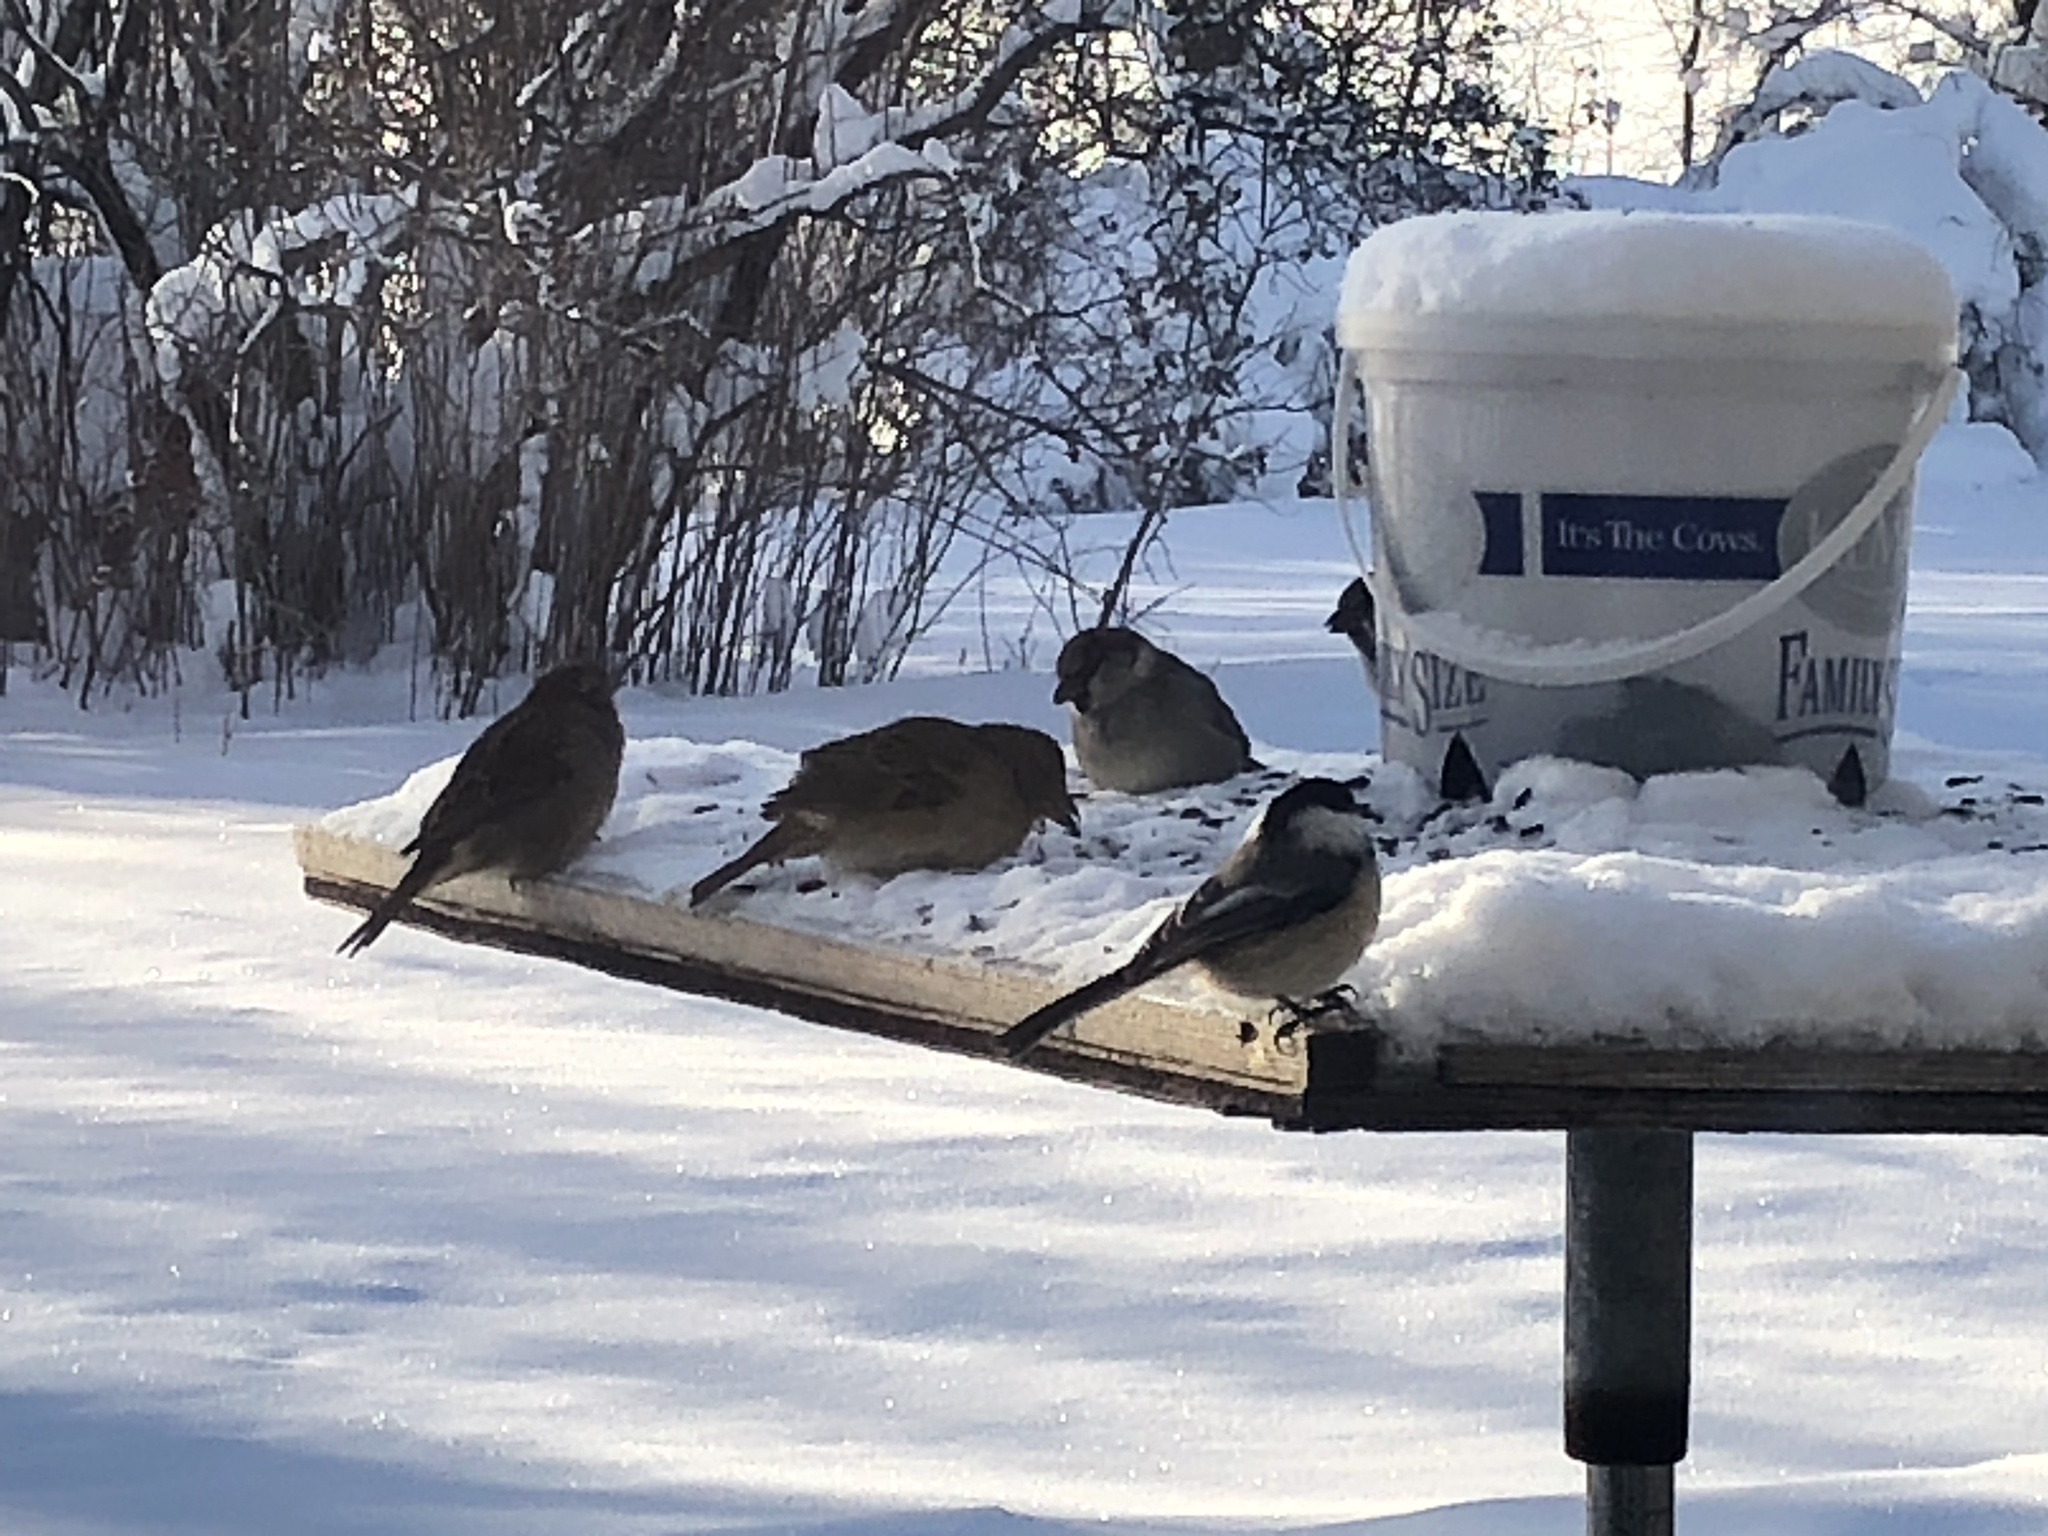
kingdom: Animalia
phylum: Chordata
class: Aves
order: Passeriformes
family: Passeridae
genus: Passer
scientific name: Passer domesticus
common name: House sparrow
